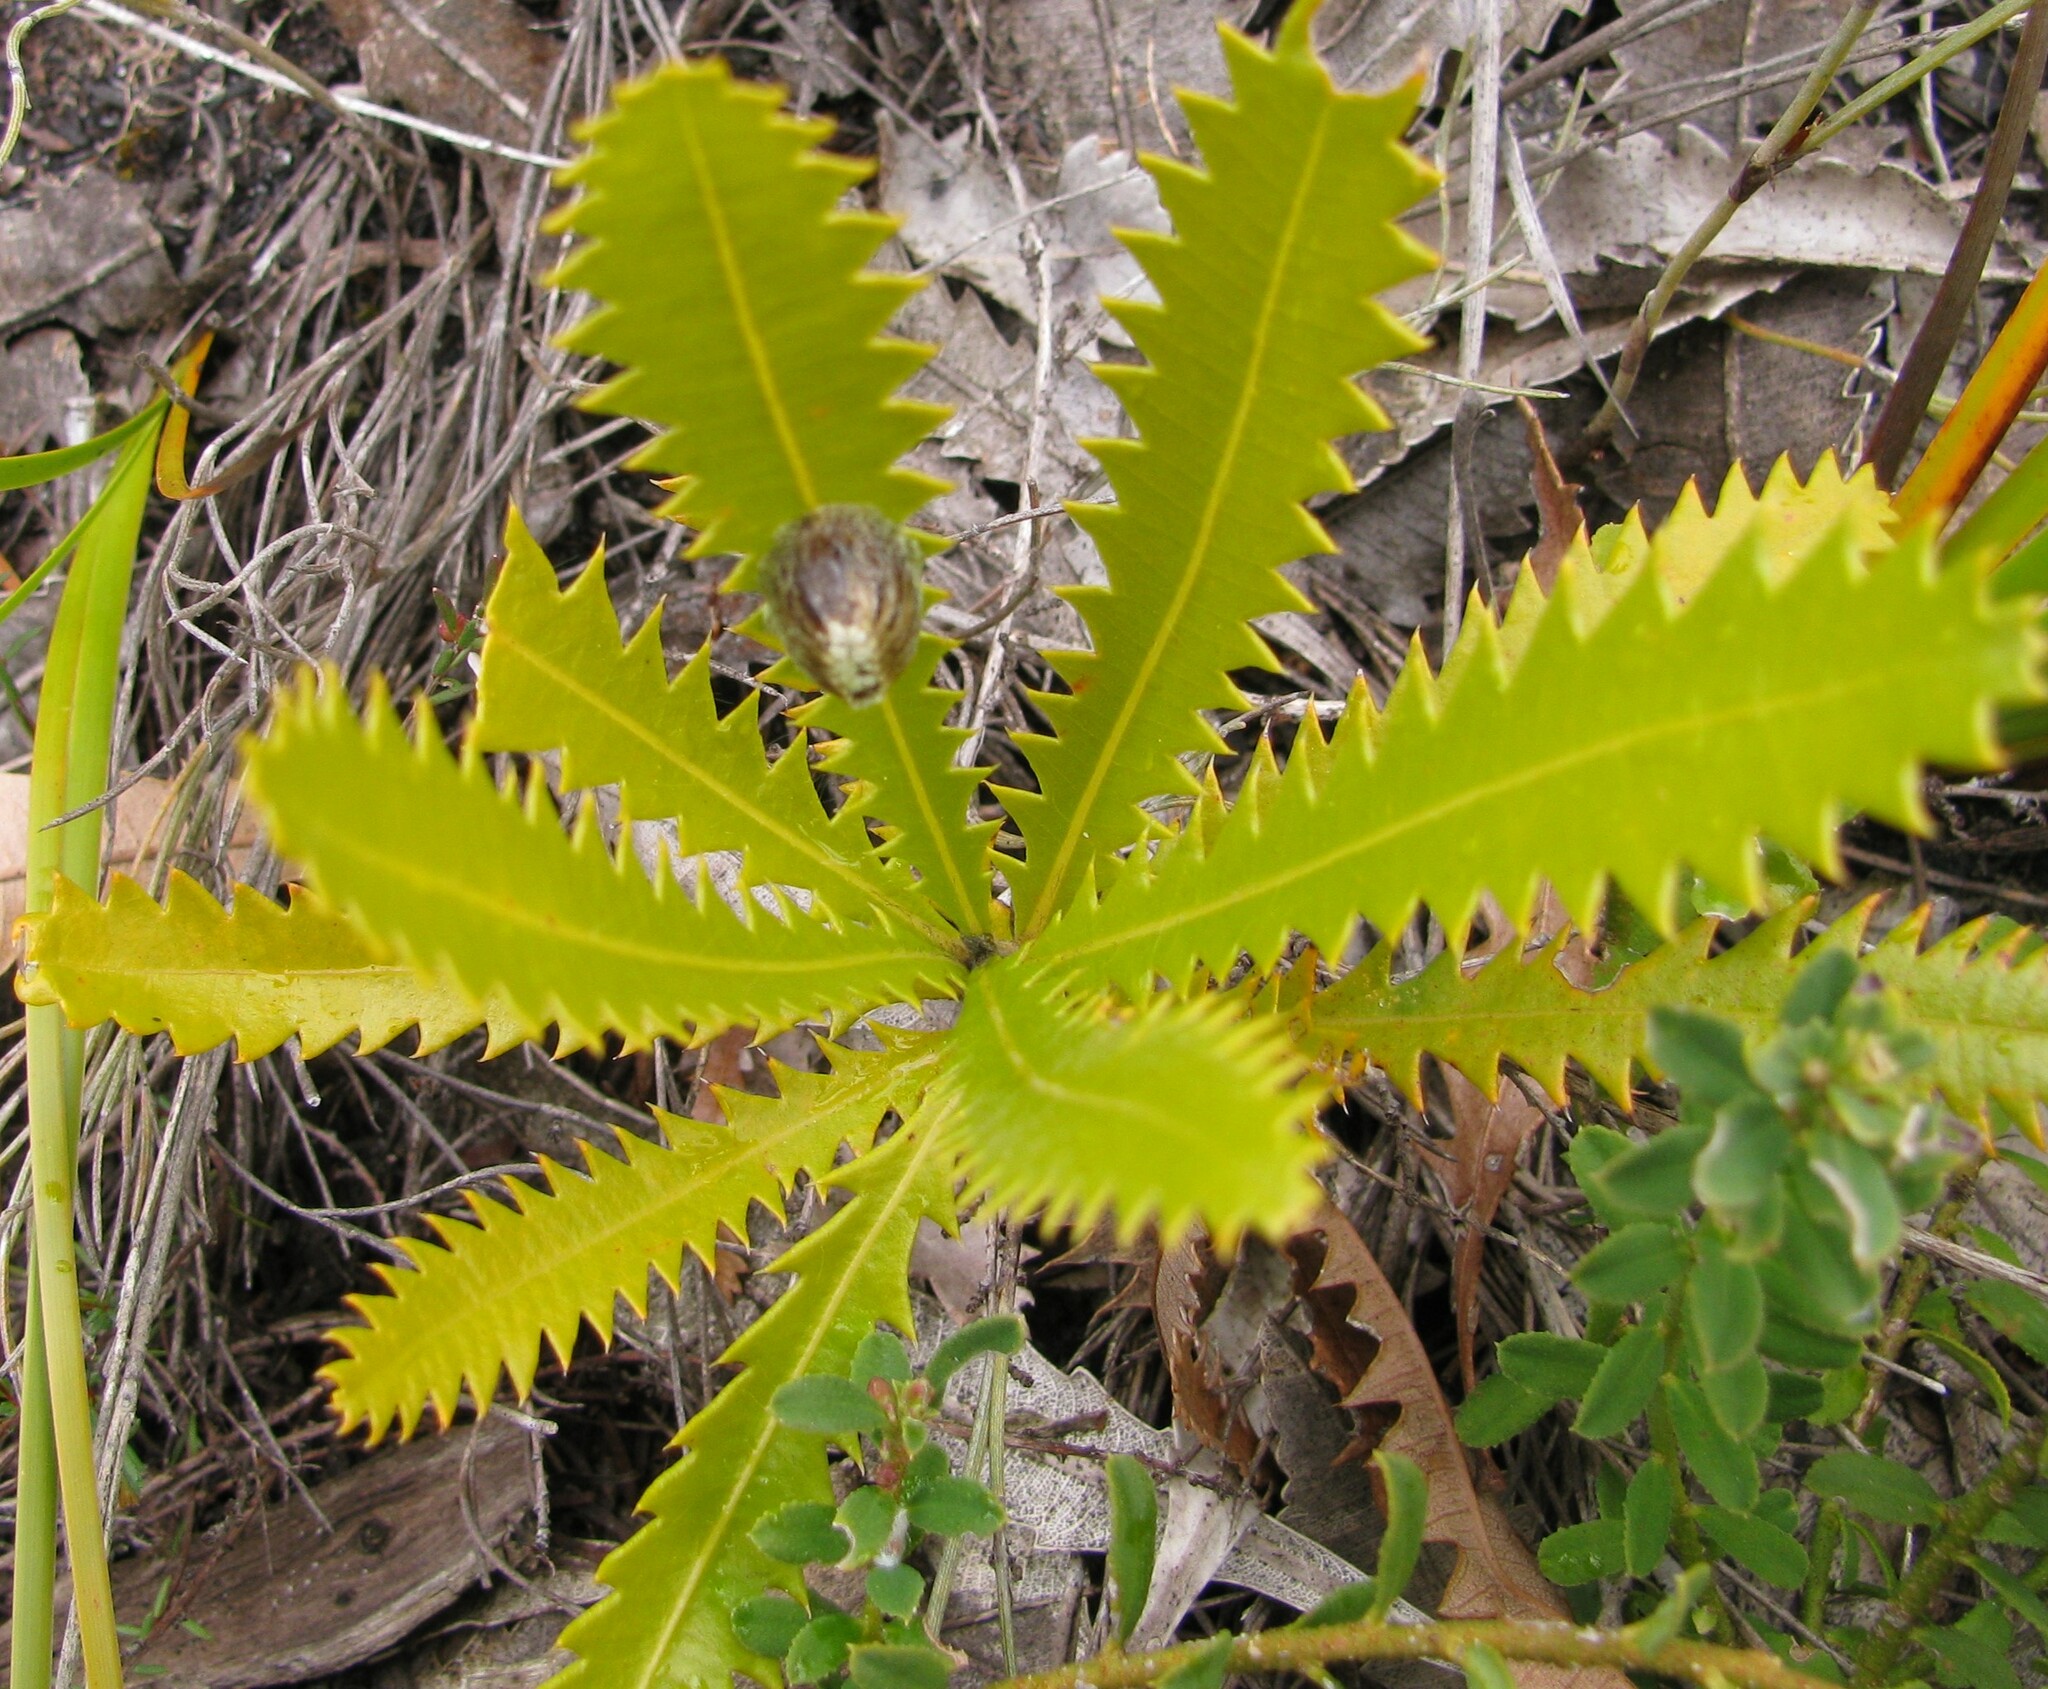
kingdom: Plantae
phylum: Tracheophyta
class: Magnoliopsida
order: Proteales
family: Proteaceae
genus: Banksia
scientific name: Banksia serrata
